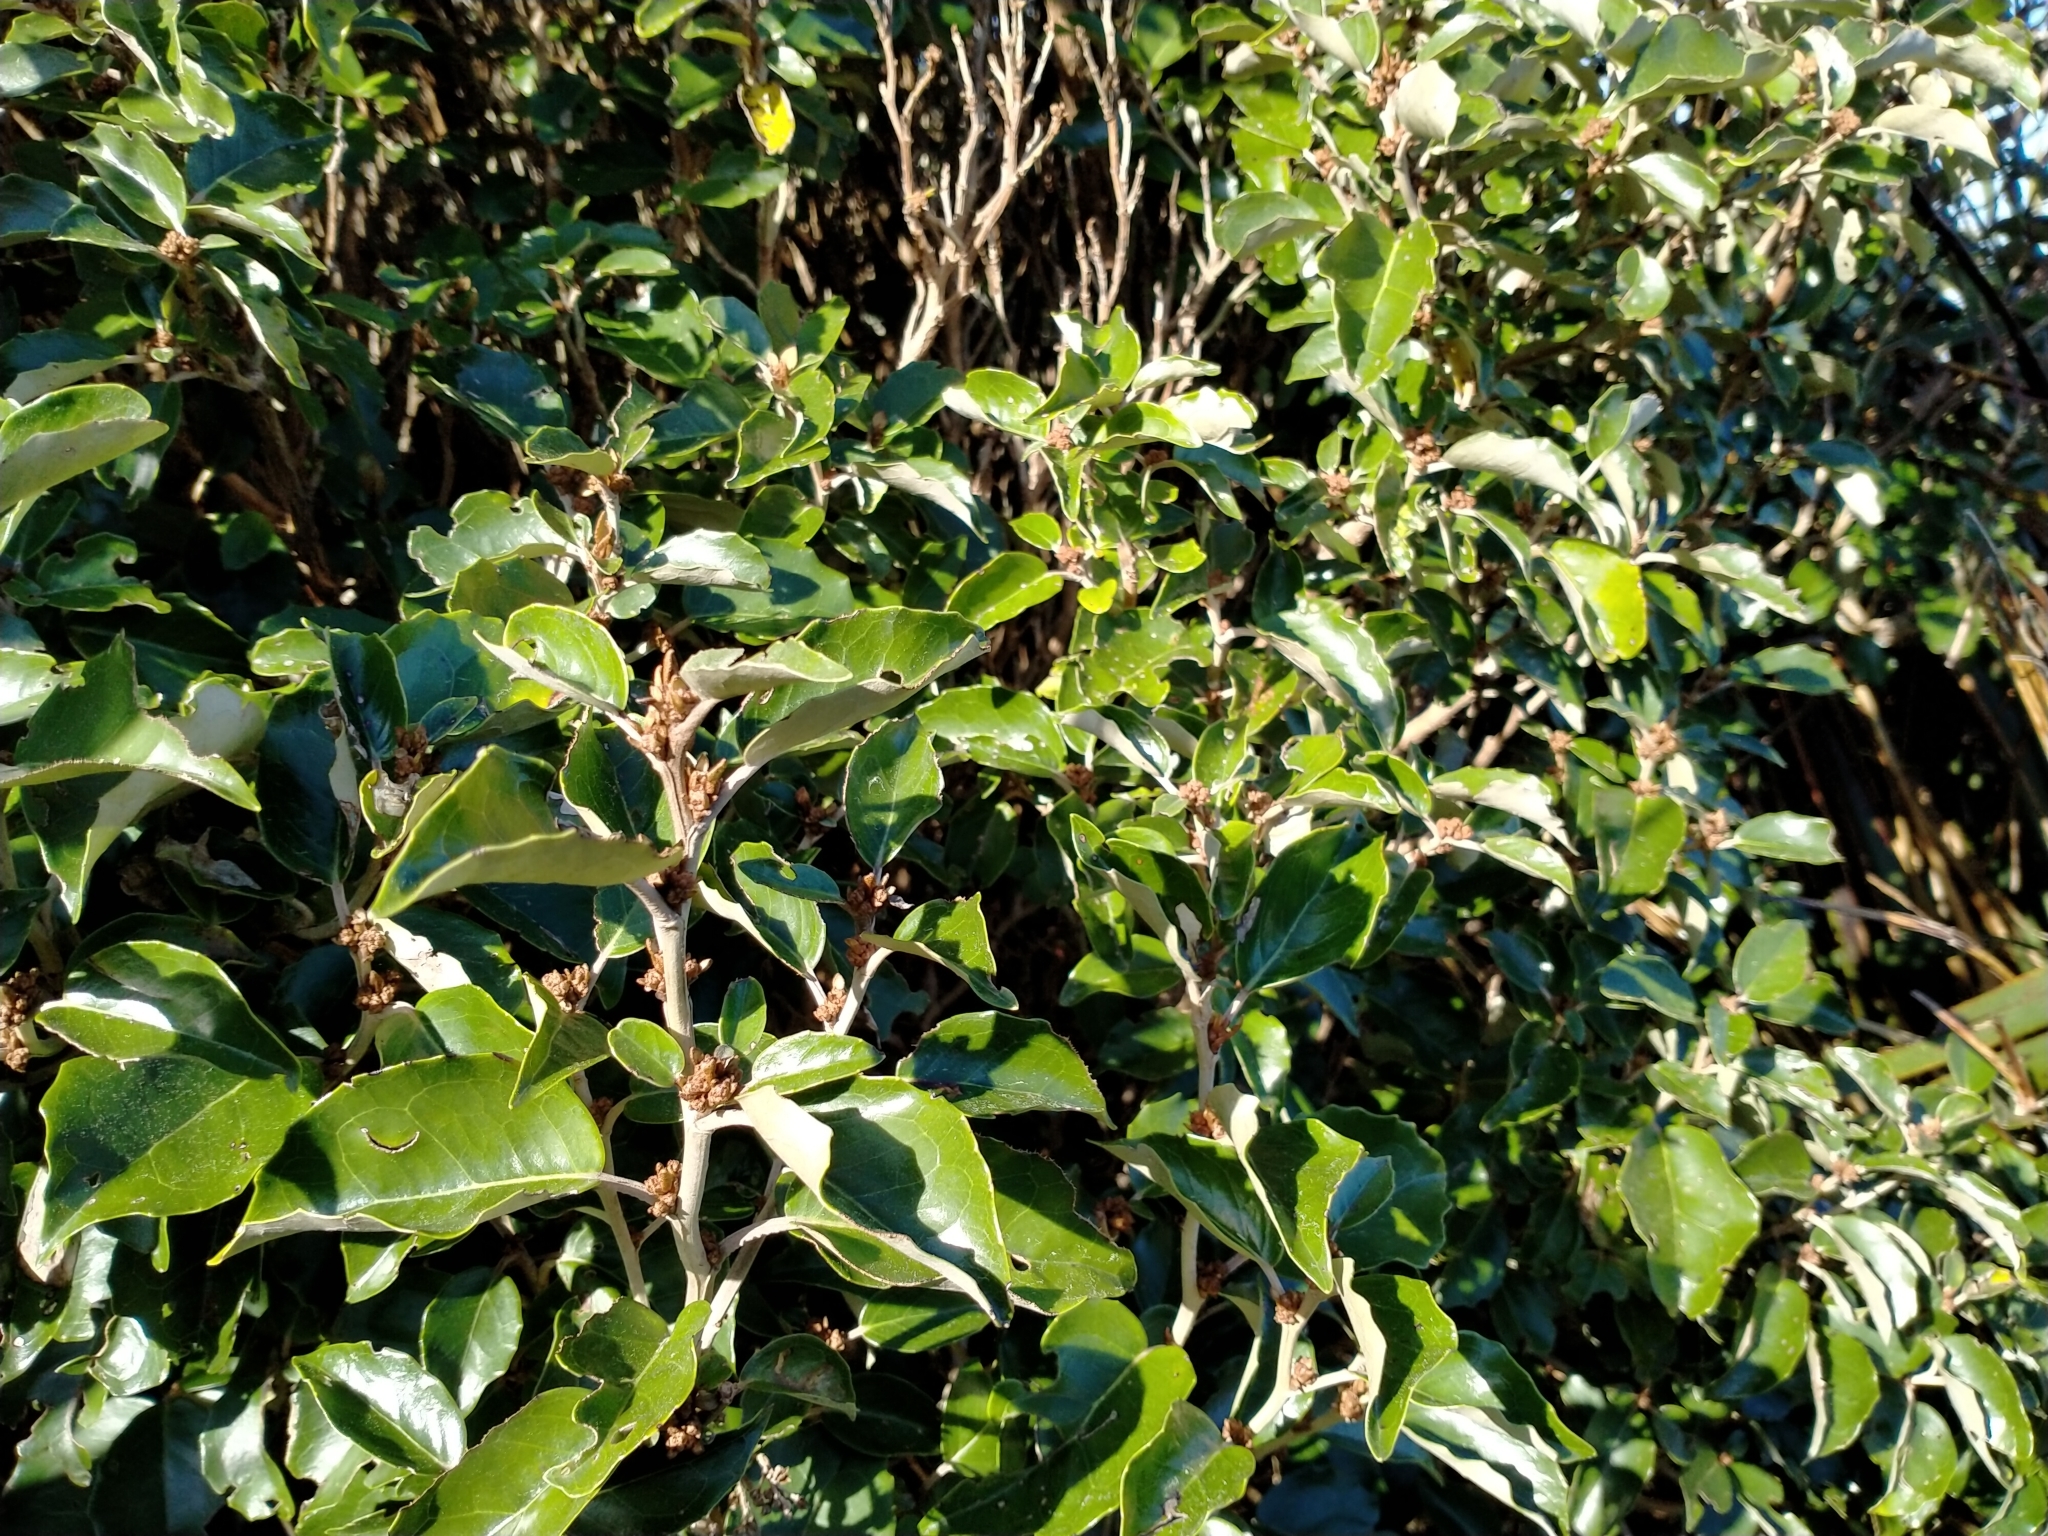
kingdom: Plantae
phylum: Tracheophyta
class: Magnoliopsida
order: Asterales
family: Asteraceae
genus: Olearia
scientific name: Olearia arborescens
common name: Glossy tree daisy
